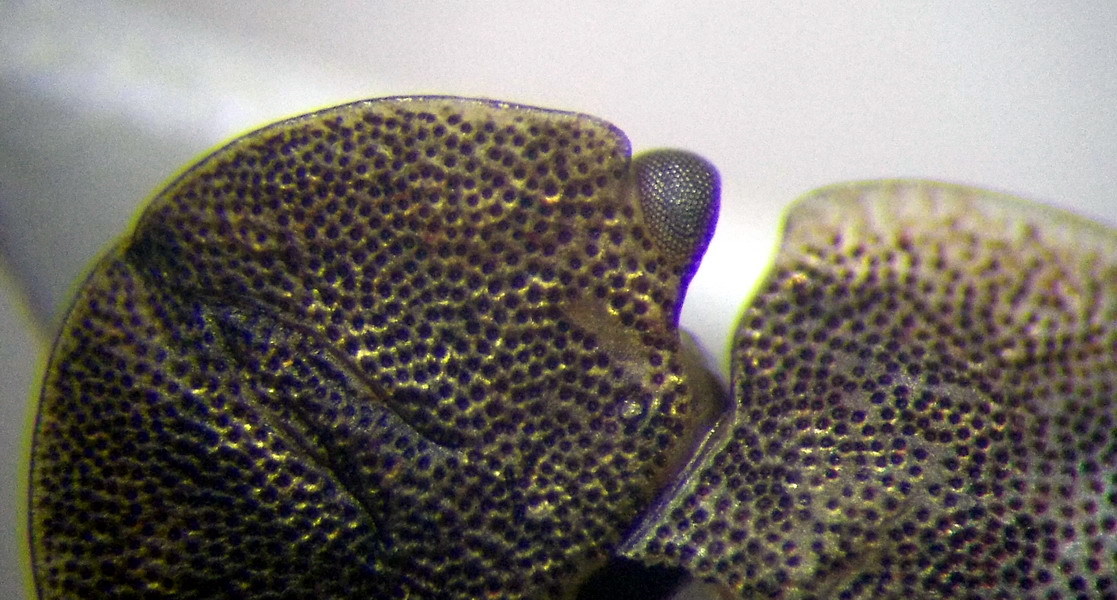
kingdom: Animalia
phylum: Arthropoda
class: Insecta
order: Hemiptera
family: Pentatomidae
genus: Sciocoris
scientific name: Sciocoris deltocephalus
